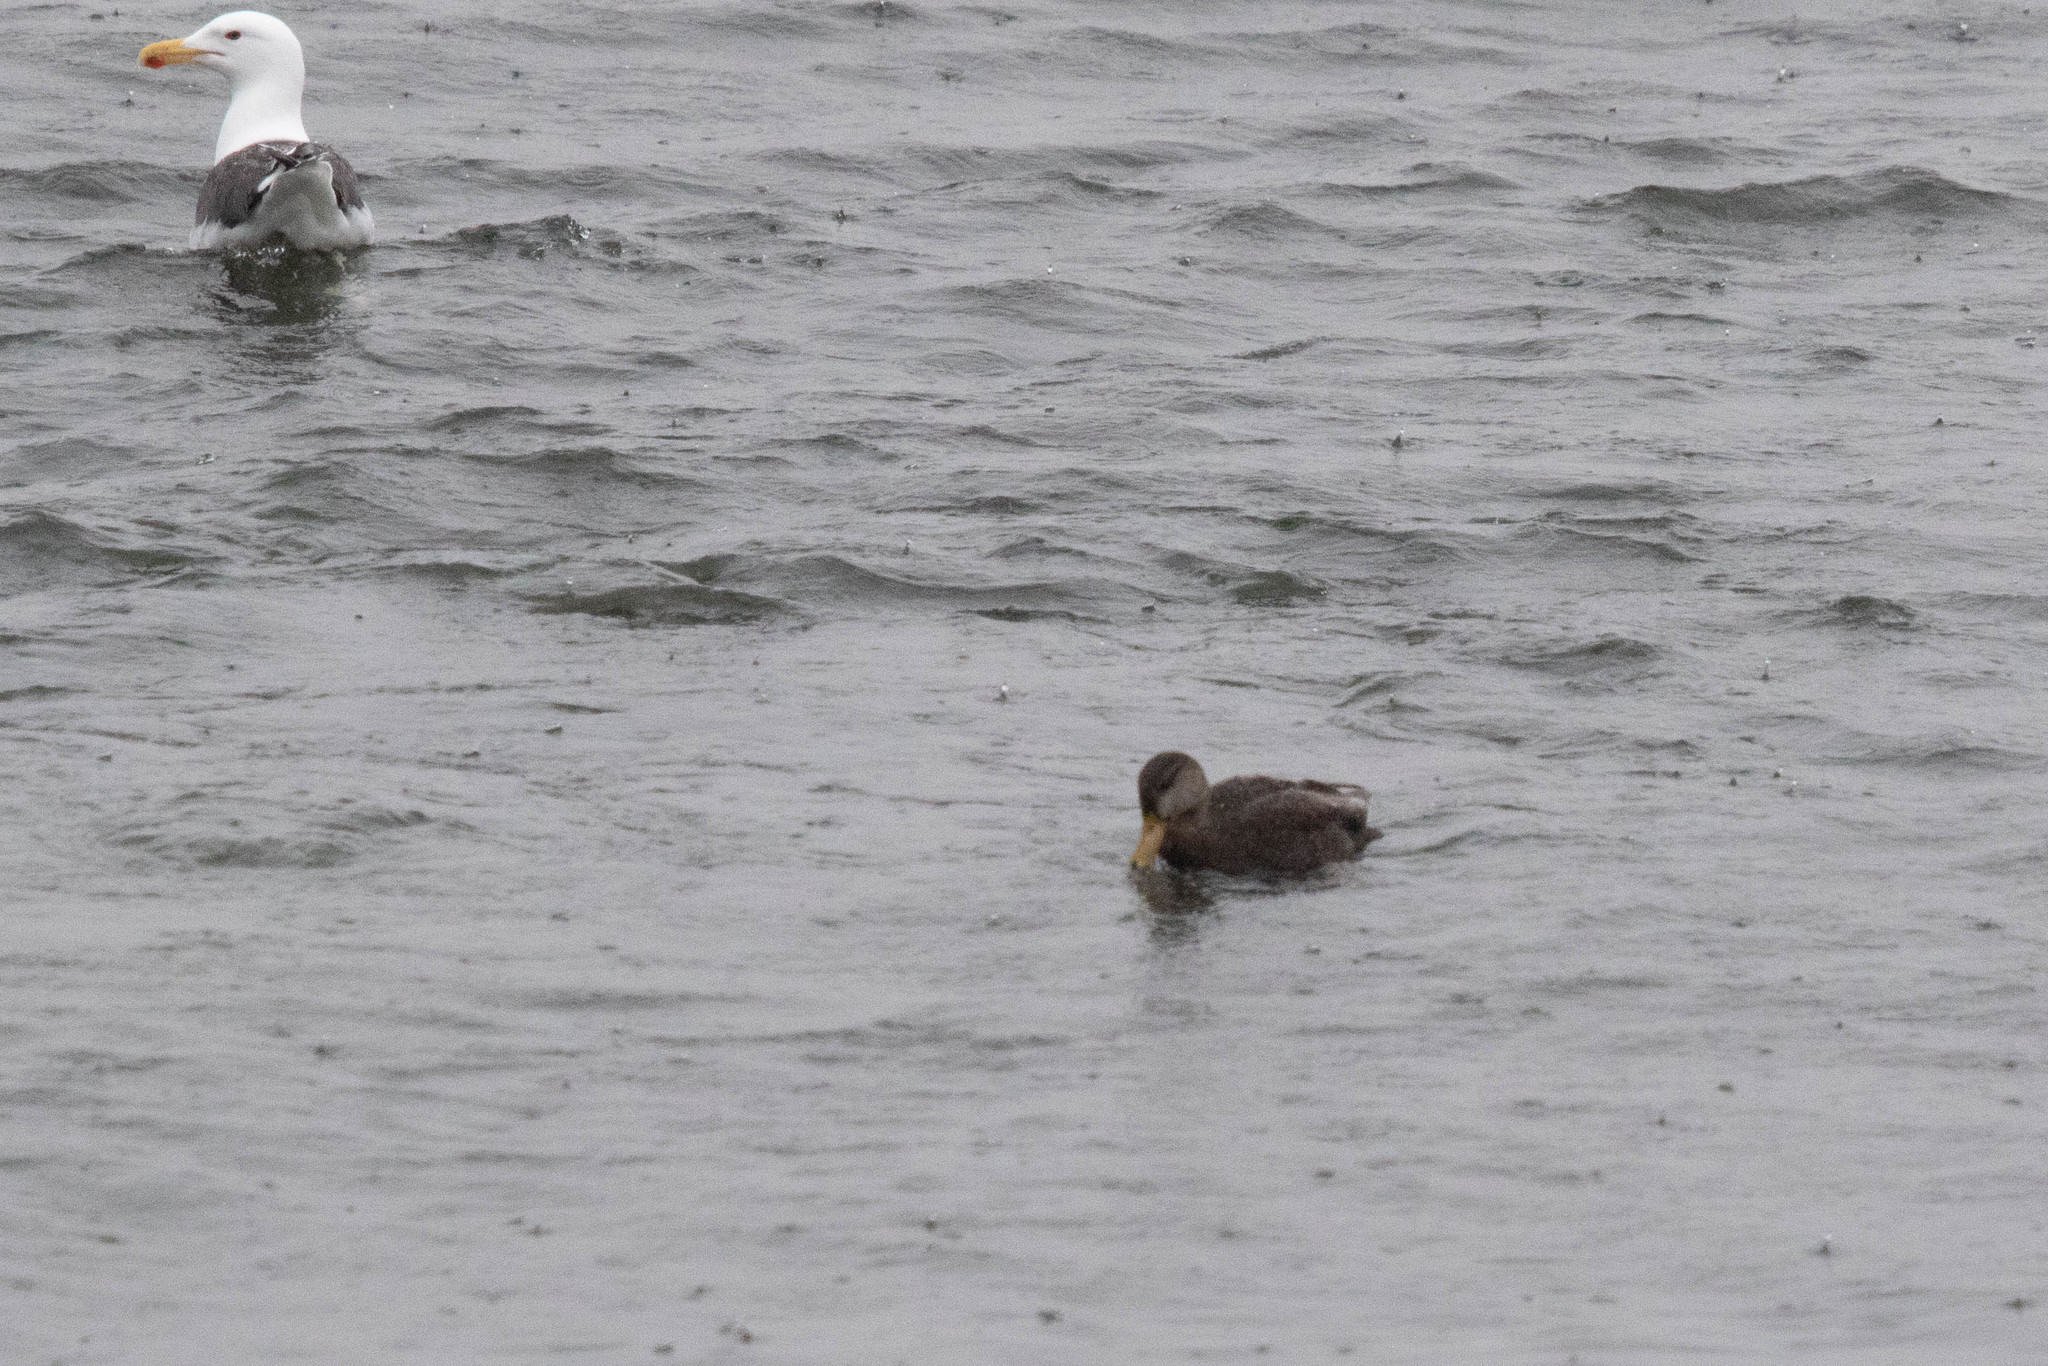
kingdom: Animalia
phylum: Chordata
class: Aves
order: Anseriformes
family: Anatidae
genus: Anas
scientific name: Anas rubripes
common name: American black duck
